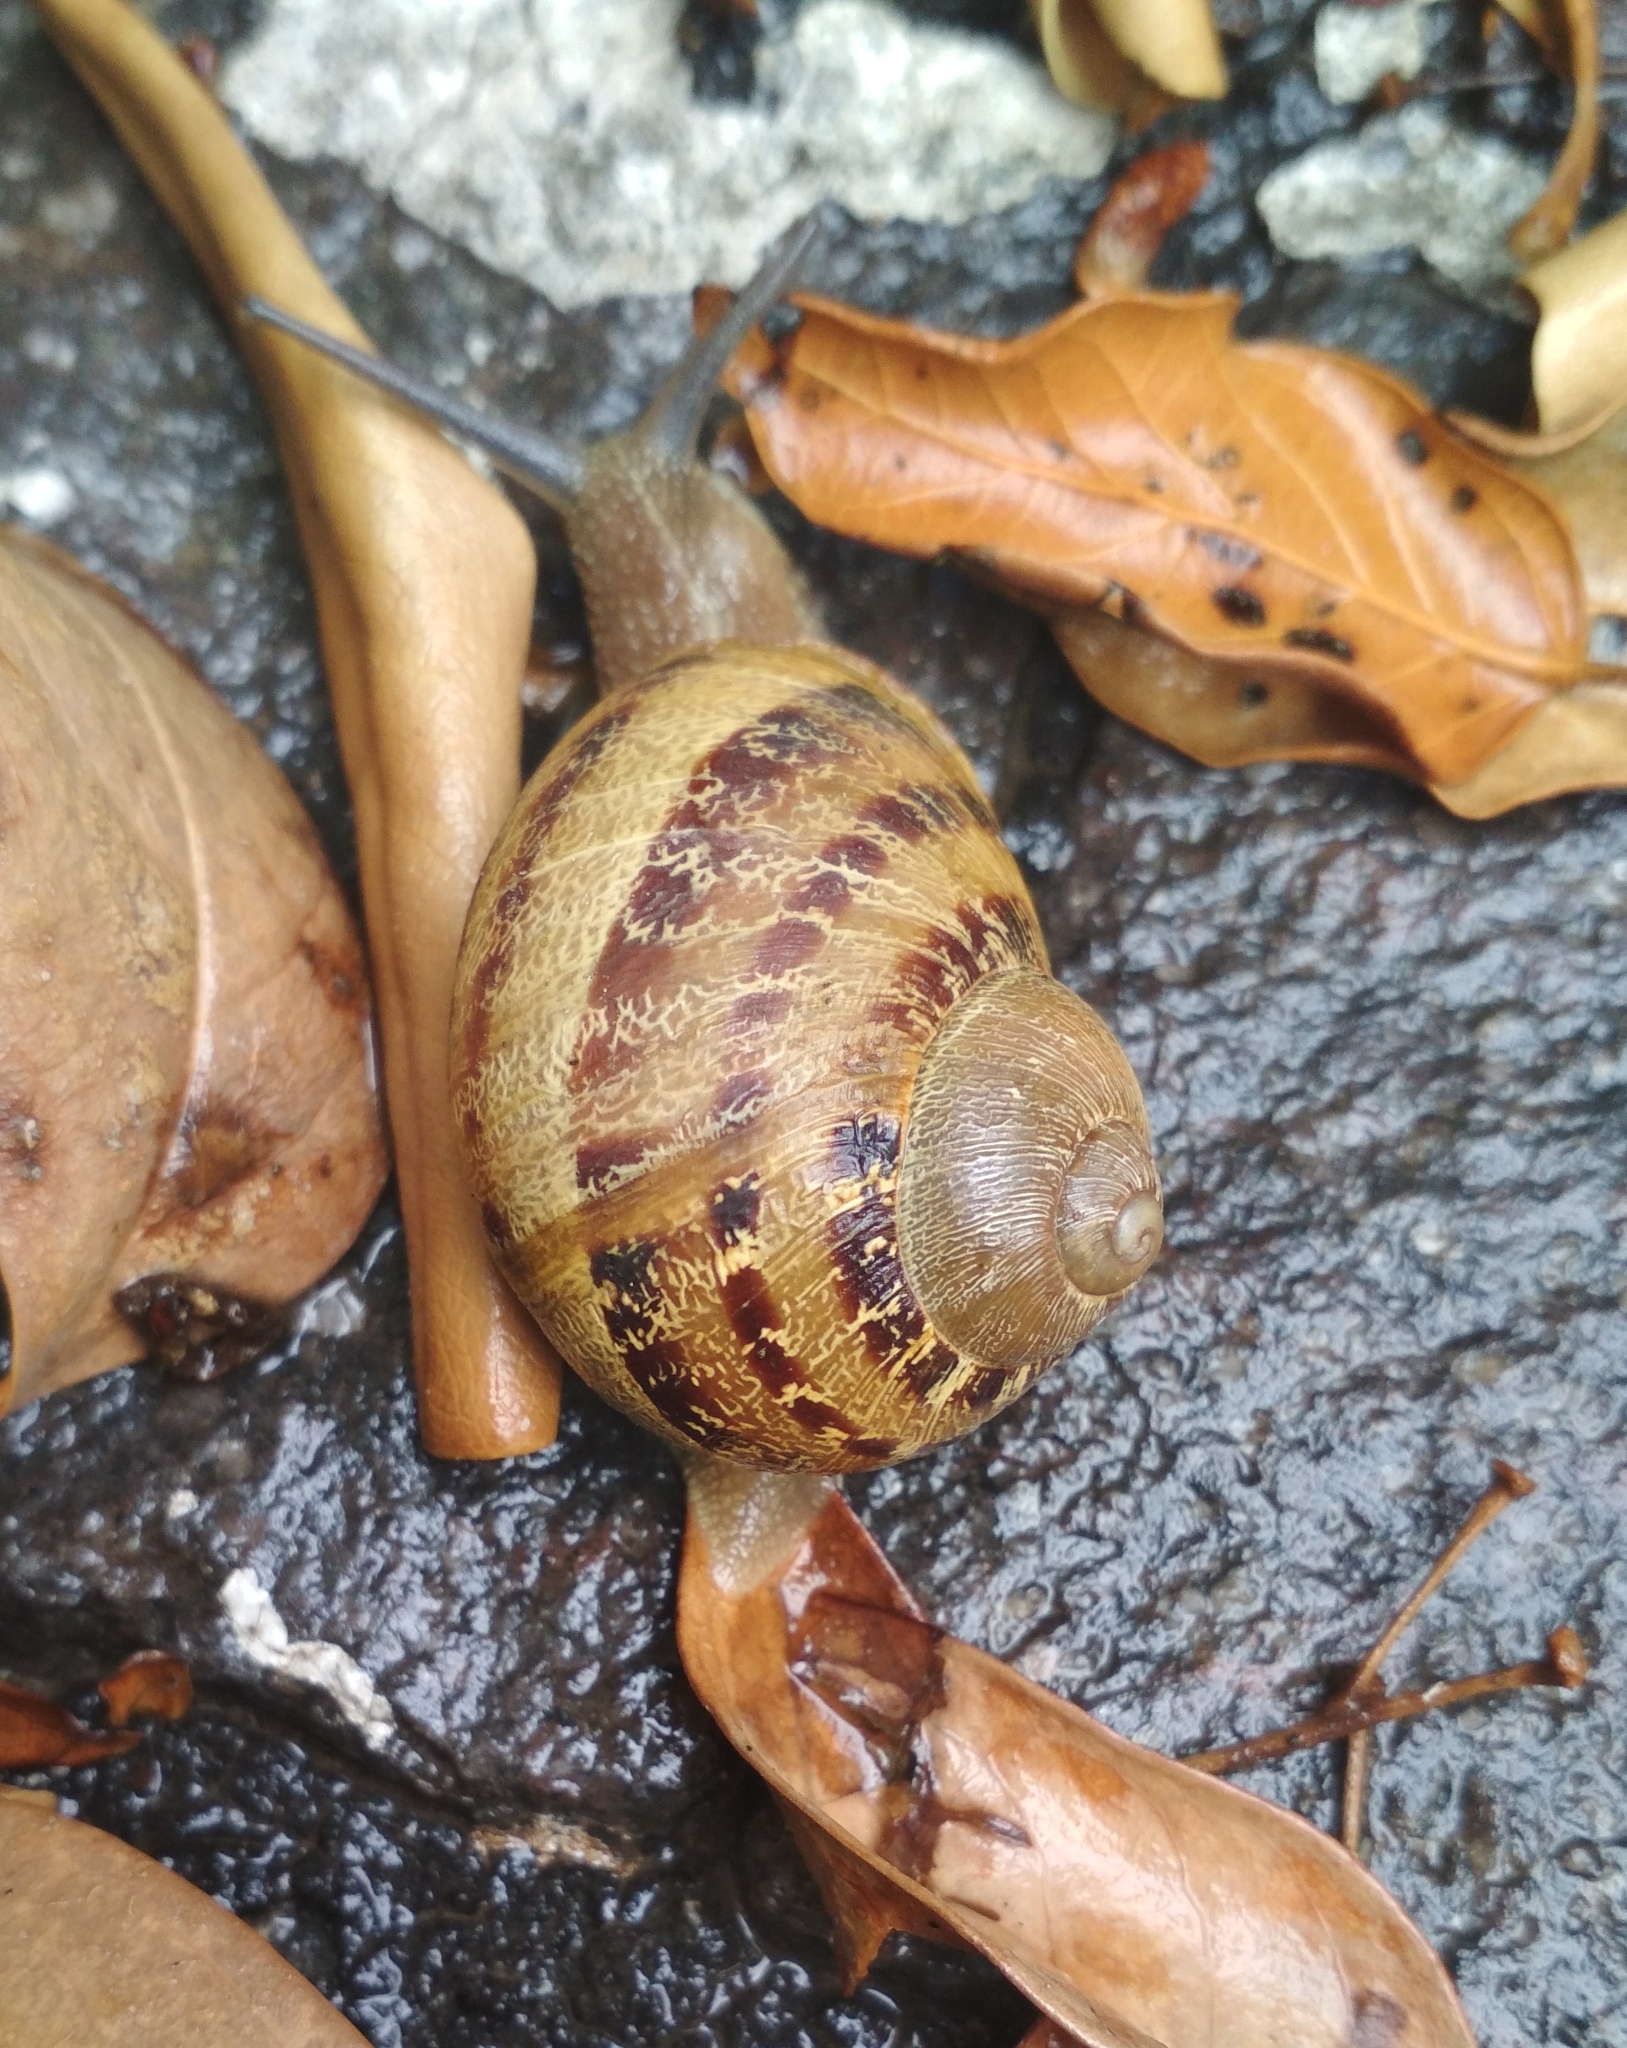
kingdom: Animalia
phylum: Mollusca
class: Gastropoda
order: Stylommatophora
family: Helicidae
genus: Cornu
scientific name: Cornu aspersum
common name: Brown garden snail
